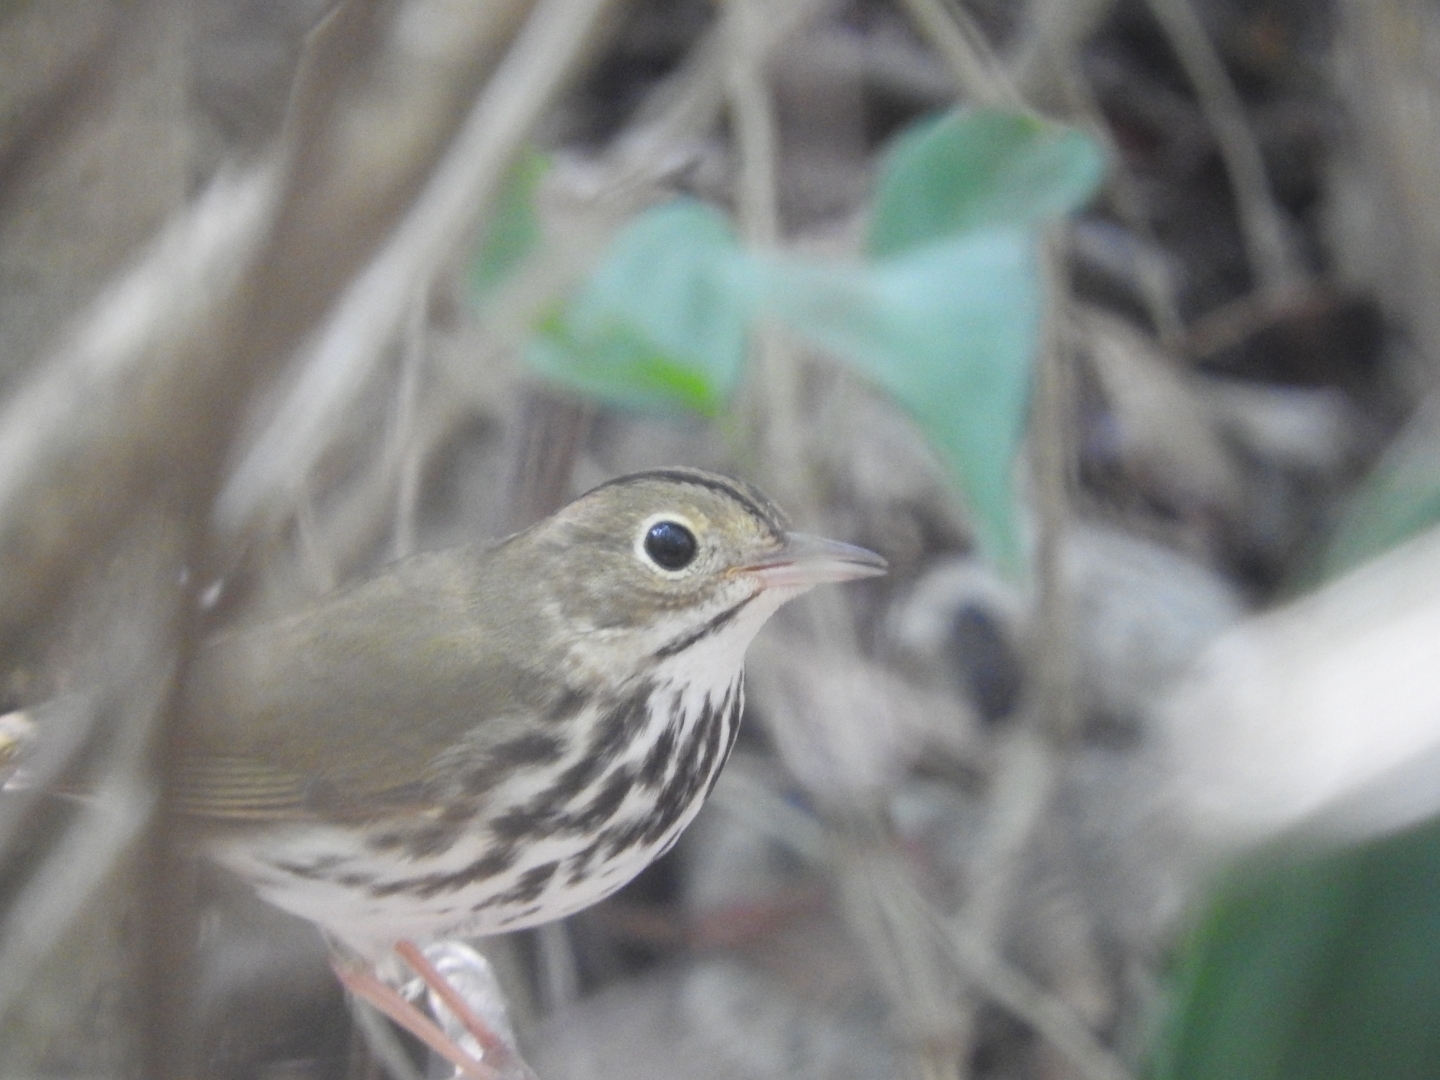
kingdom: Animalia
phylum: Chordata
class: Aves
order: Passeriformes
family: Parulidae
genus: Seiurus
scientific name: Seiurus aurocapilla
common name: Ovenbird
